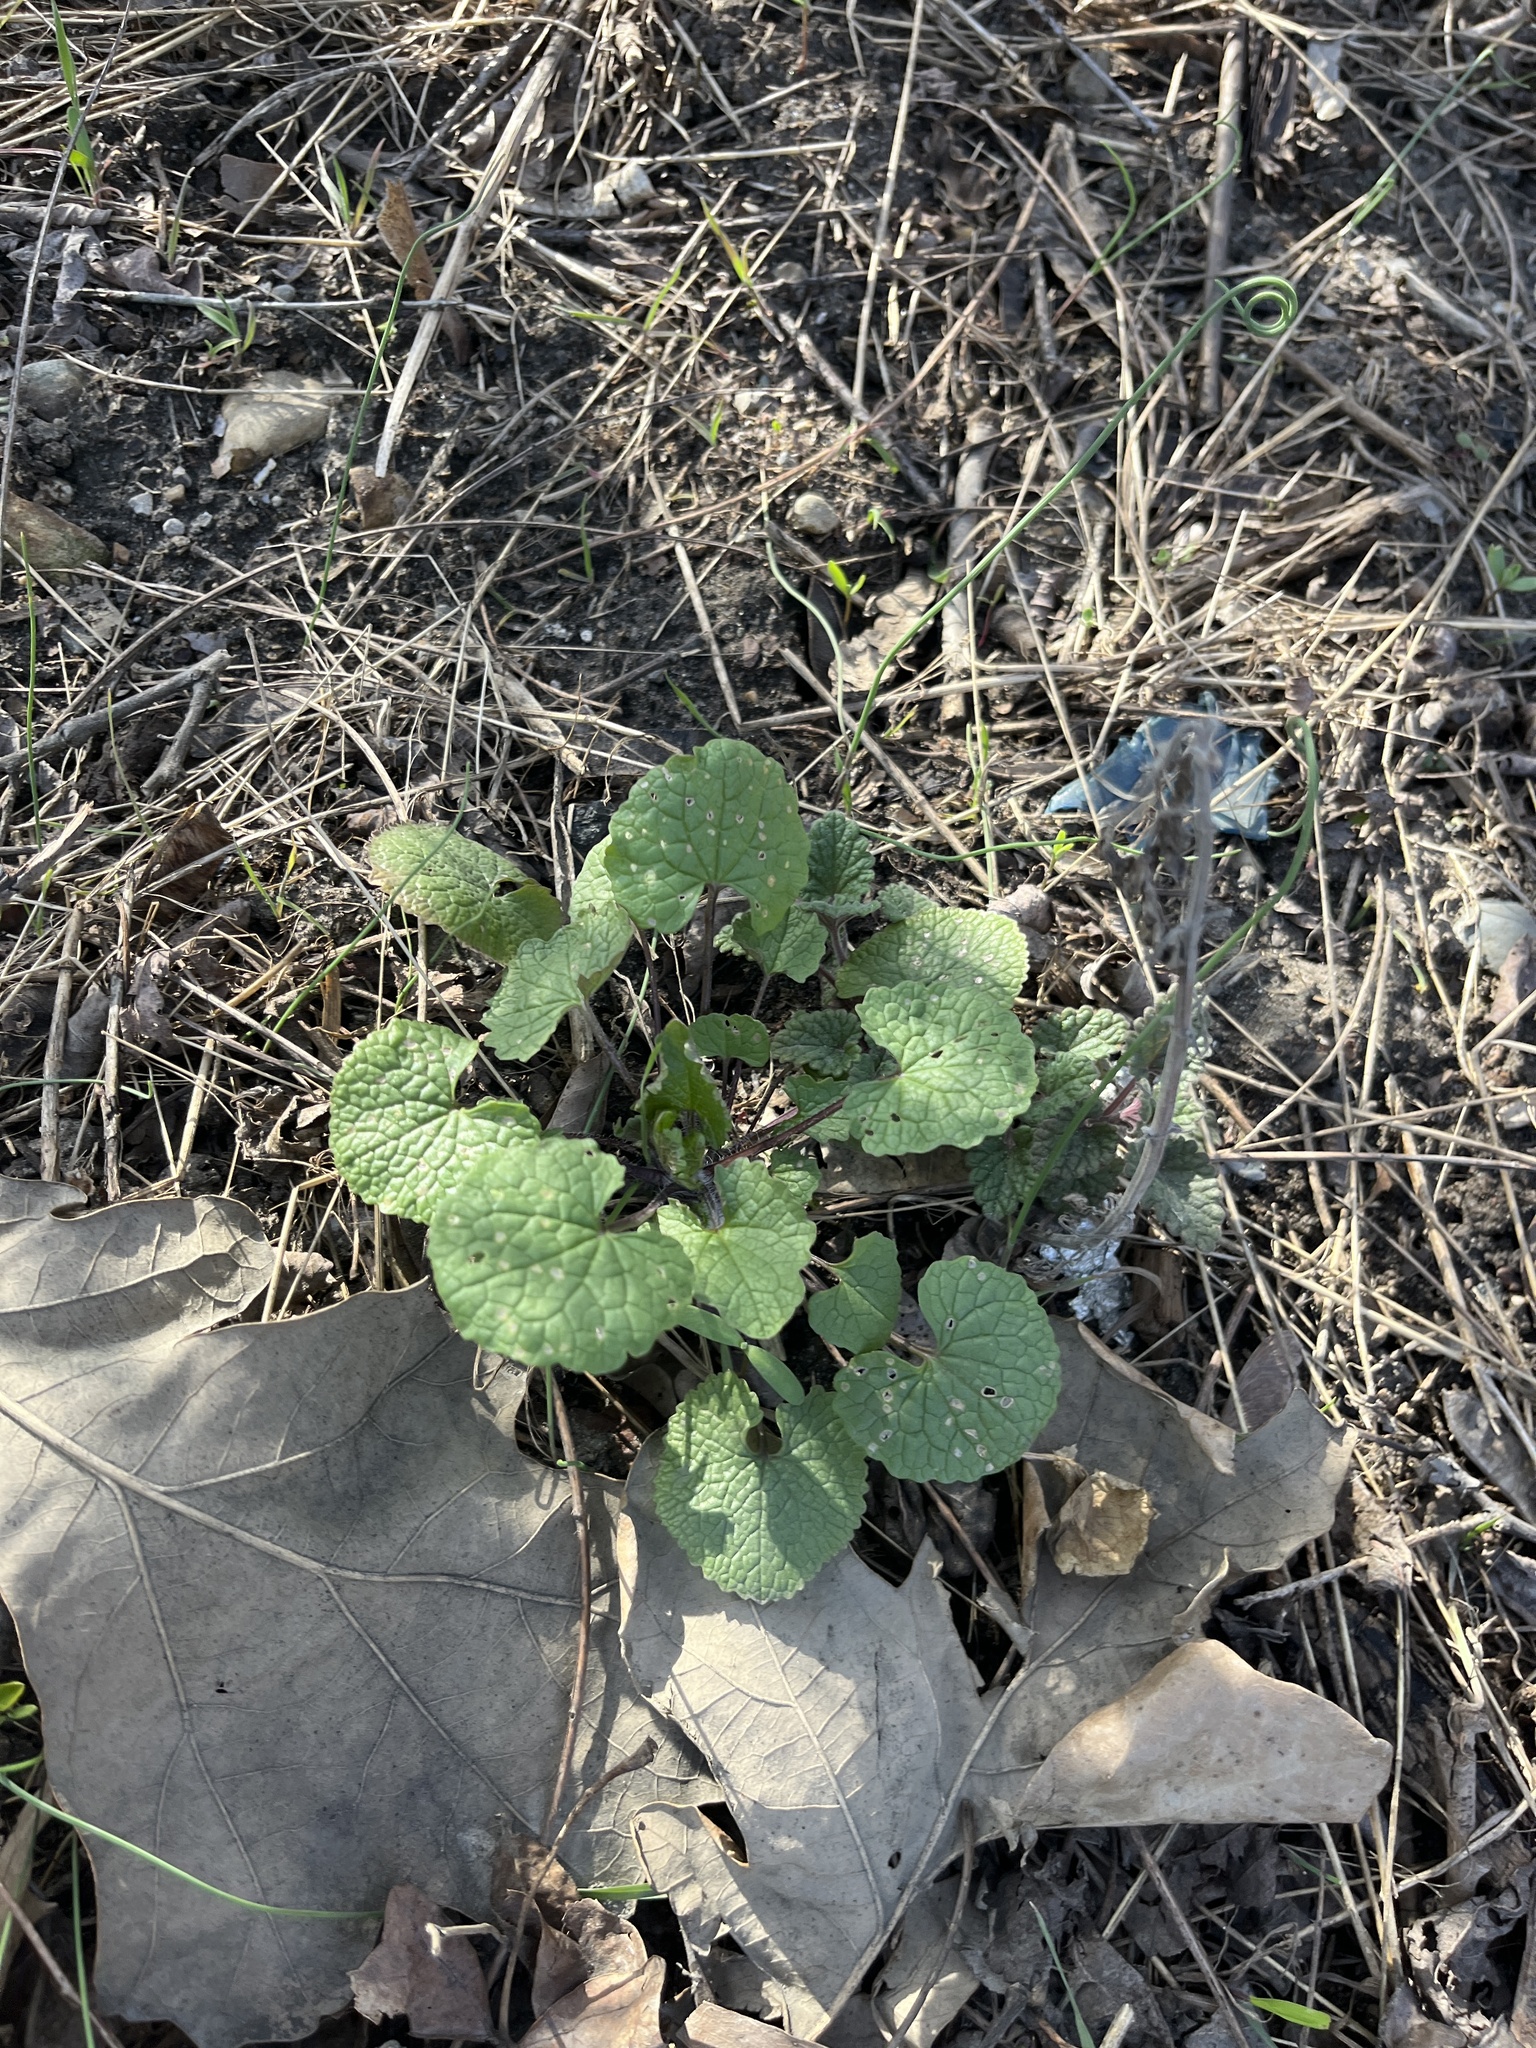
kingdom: Plantae
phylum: Tracheophyta
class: Magnoliopsida
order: Brassicales
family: Brassicaceae
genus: Alliaria
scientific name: Alliaria petiolata
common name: Garlic mustard
